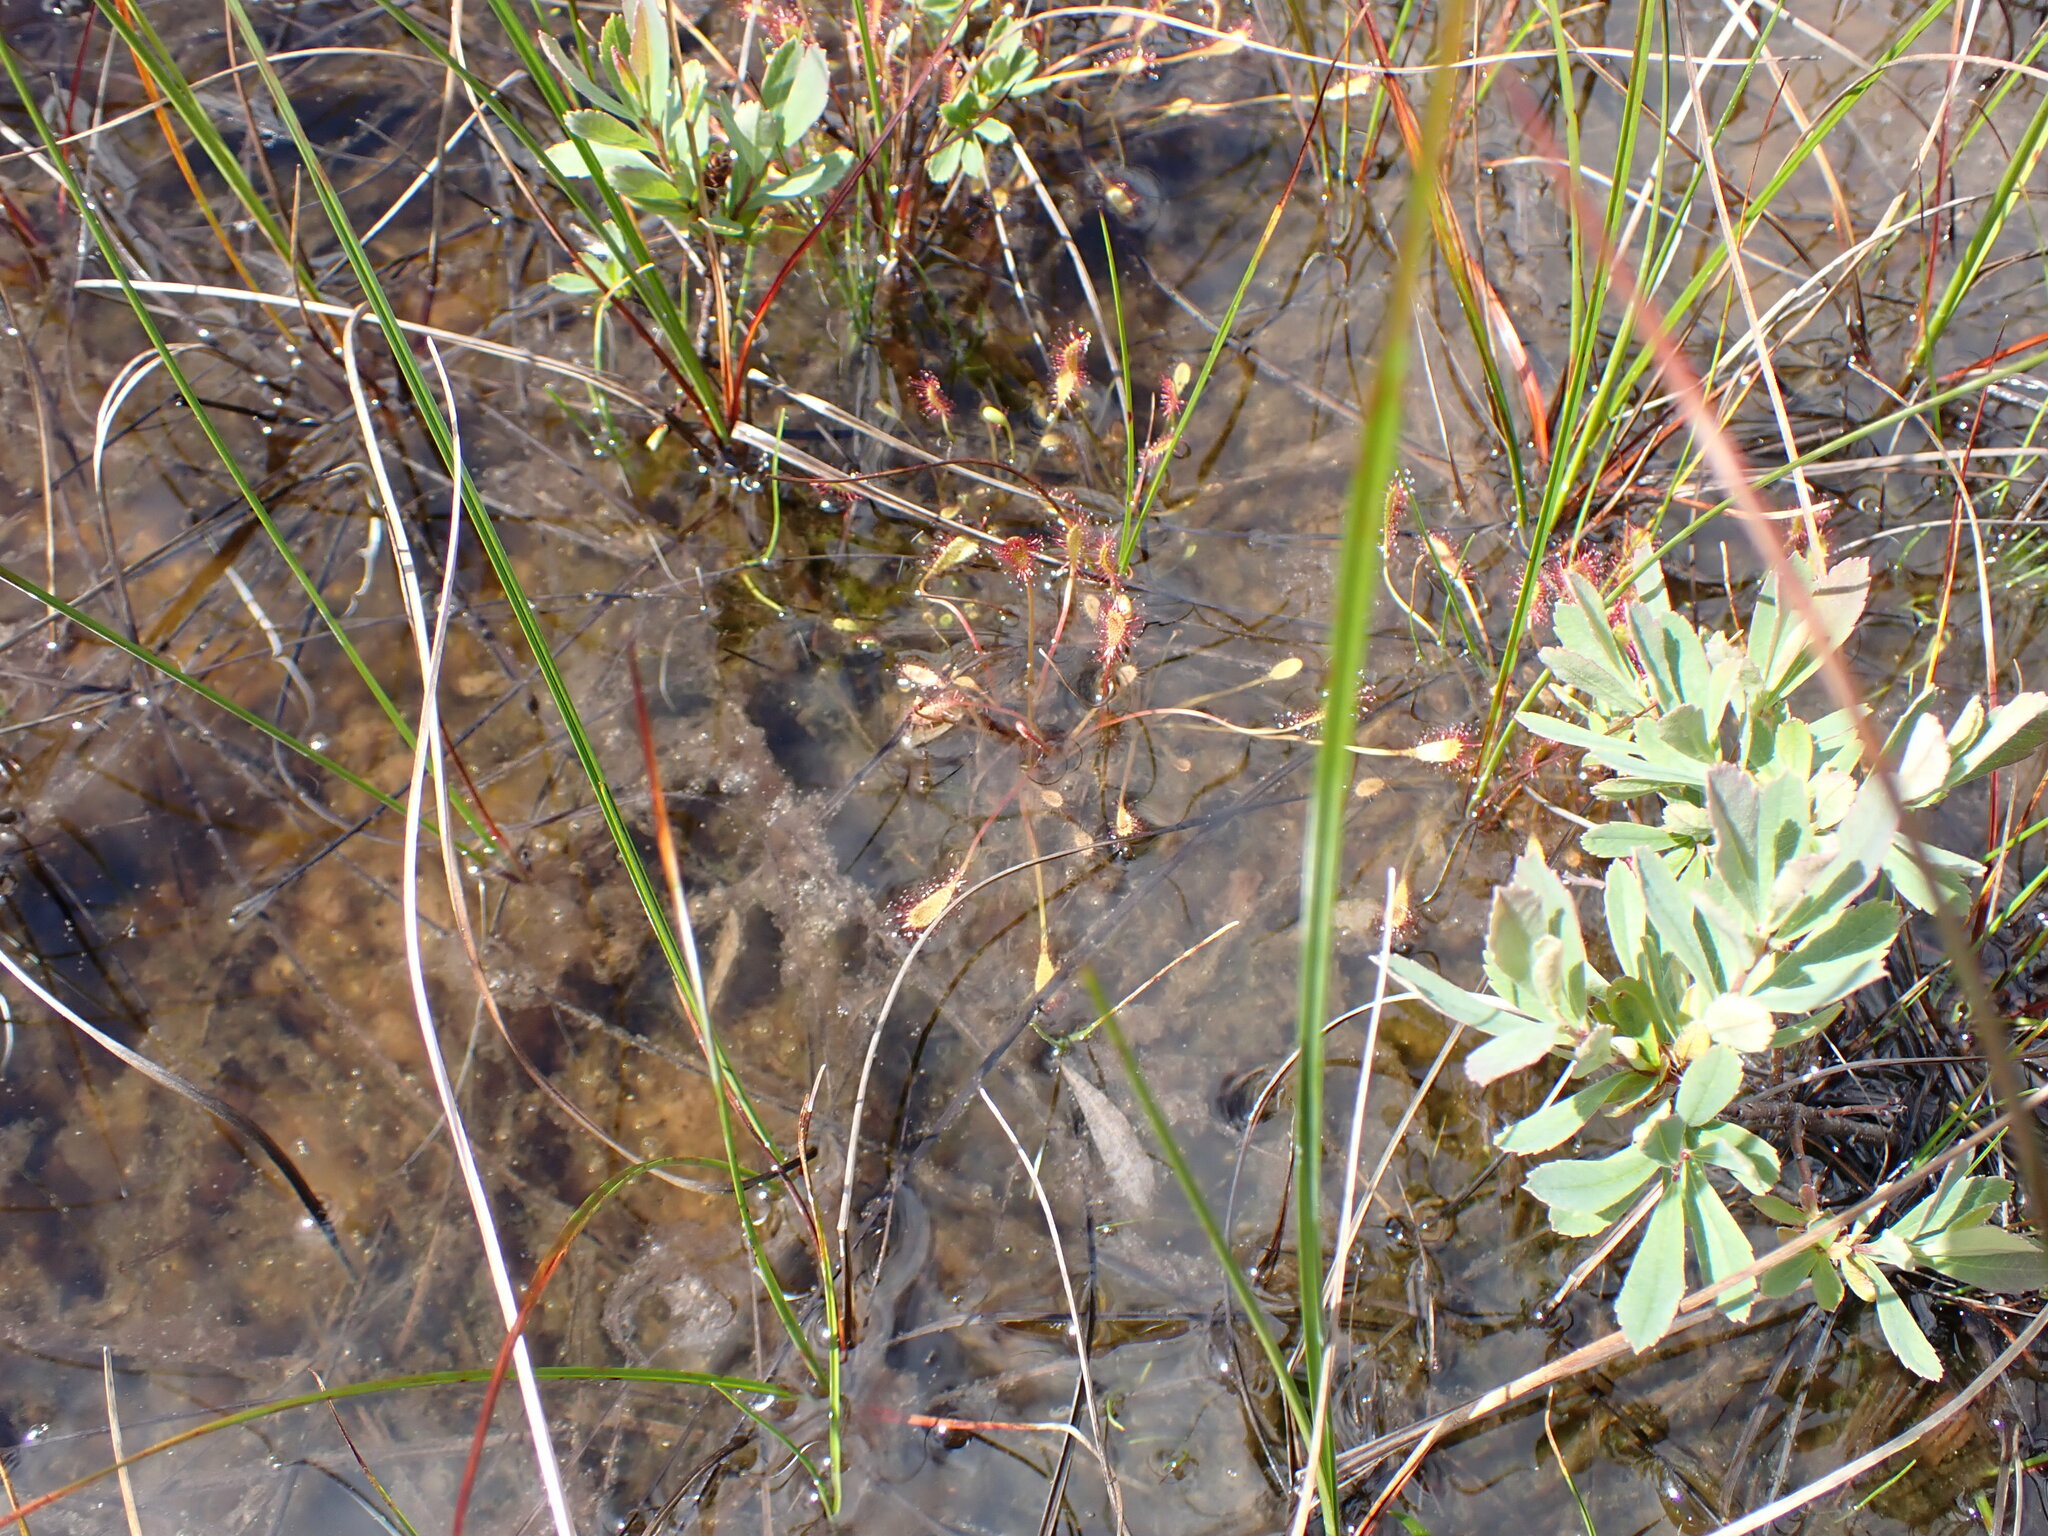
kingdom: Plantae
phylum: Tracheophyta
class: Magnoliopsida
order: Caryophyllales
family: Droseraceae
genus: Drosera
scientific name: Drosera anglica
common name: Great sundew
